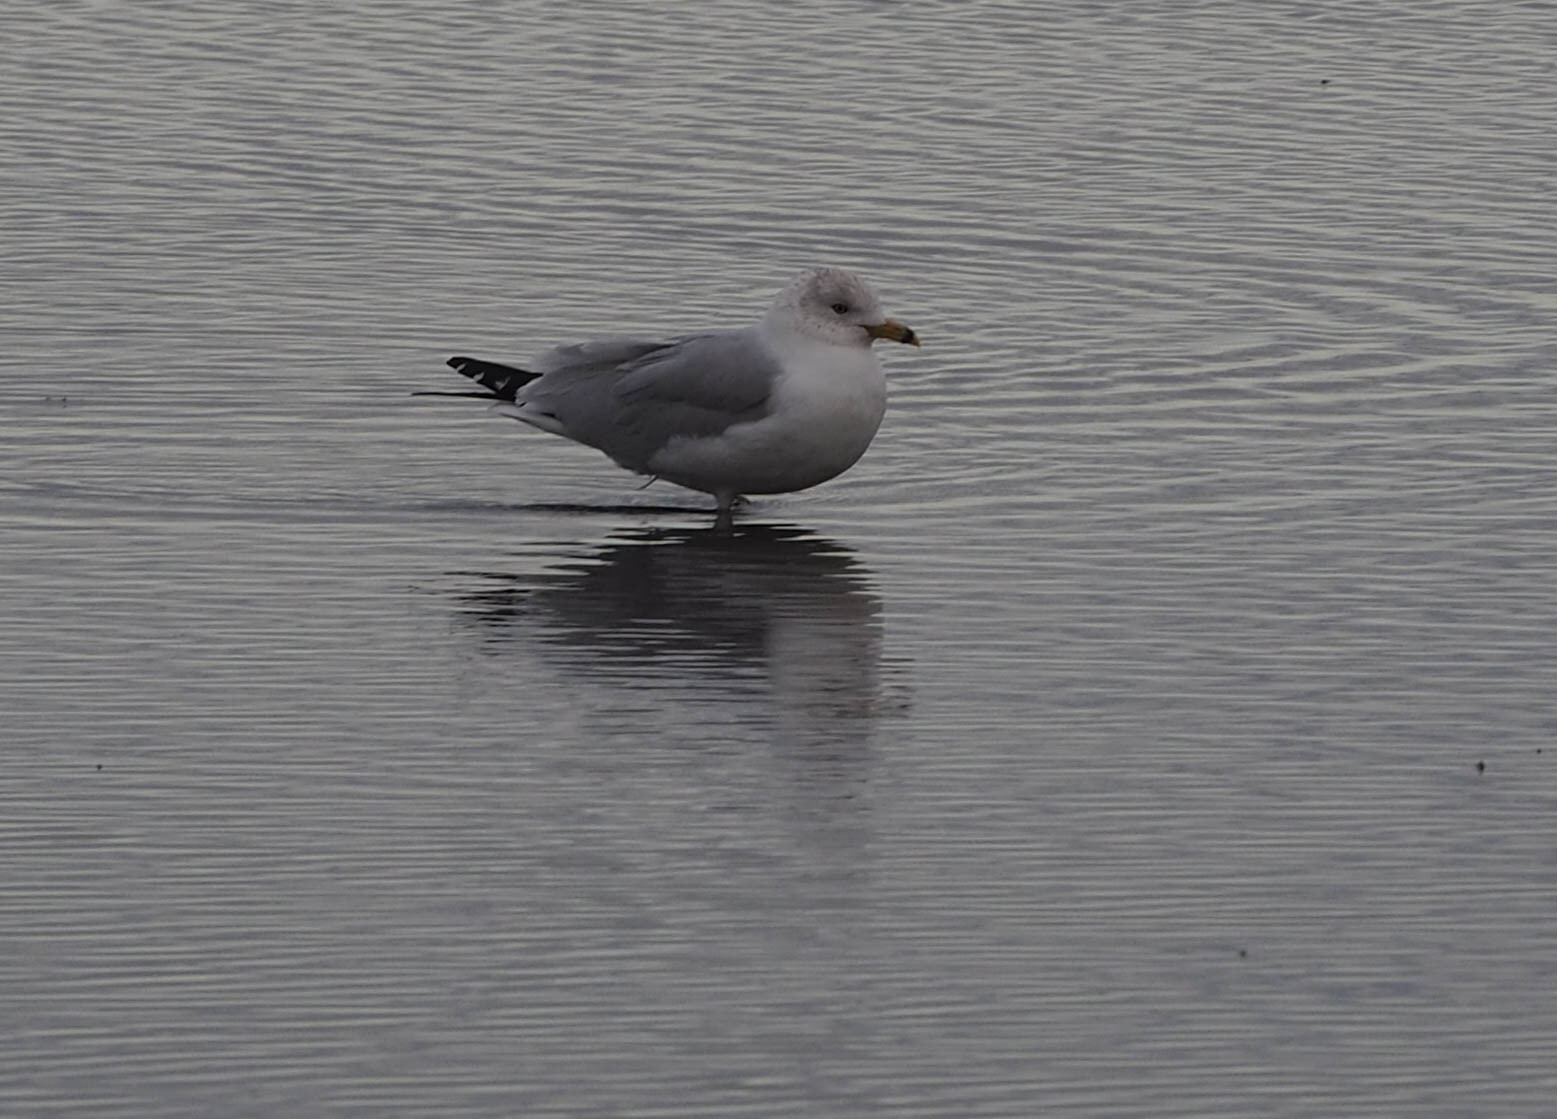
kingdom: Animalia
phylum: Chordata
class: Aves
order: Charadriiformes
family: Laridae
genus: Larus
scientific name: Larus delawarensis
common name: Ring-billed gull
